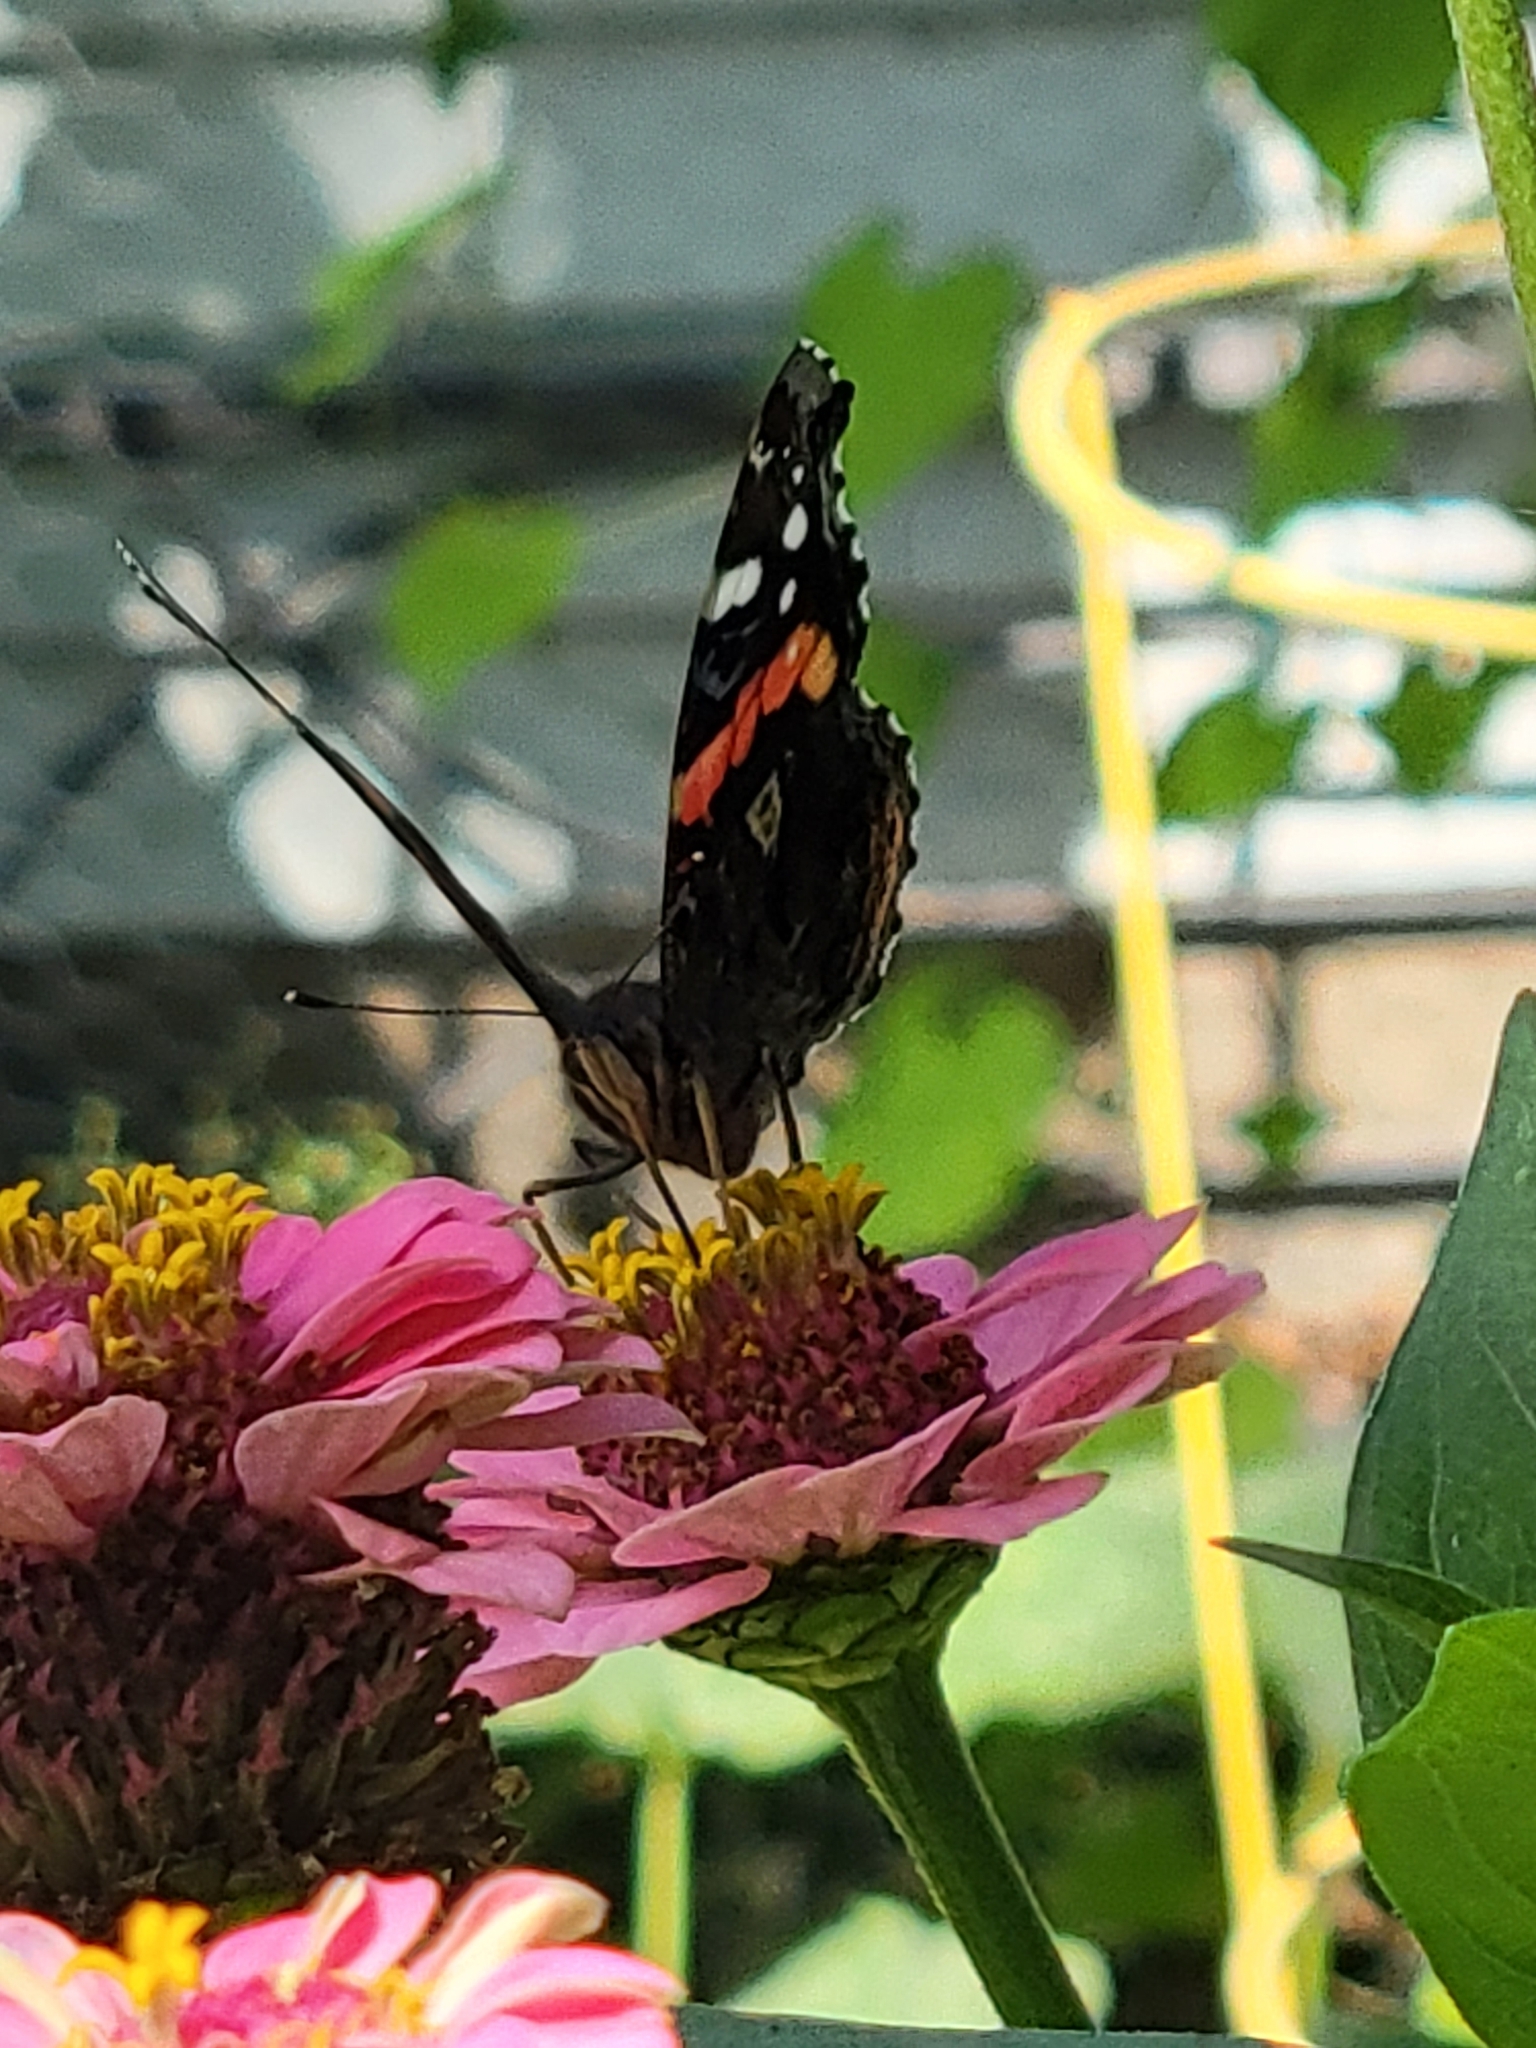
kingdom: Animalia
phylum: Arthropoda
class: Insecta
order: Lepidoptera
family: Nymphalidae
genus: Vanessa
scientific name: Vanessa atalanta
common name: Red admiral
